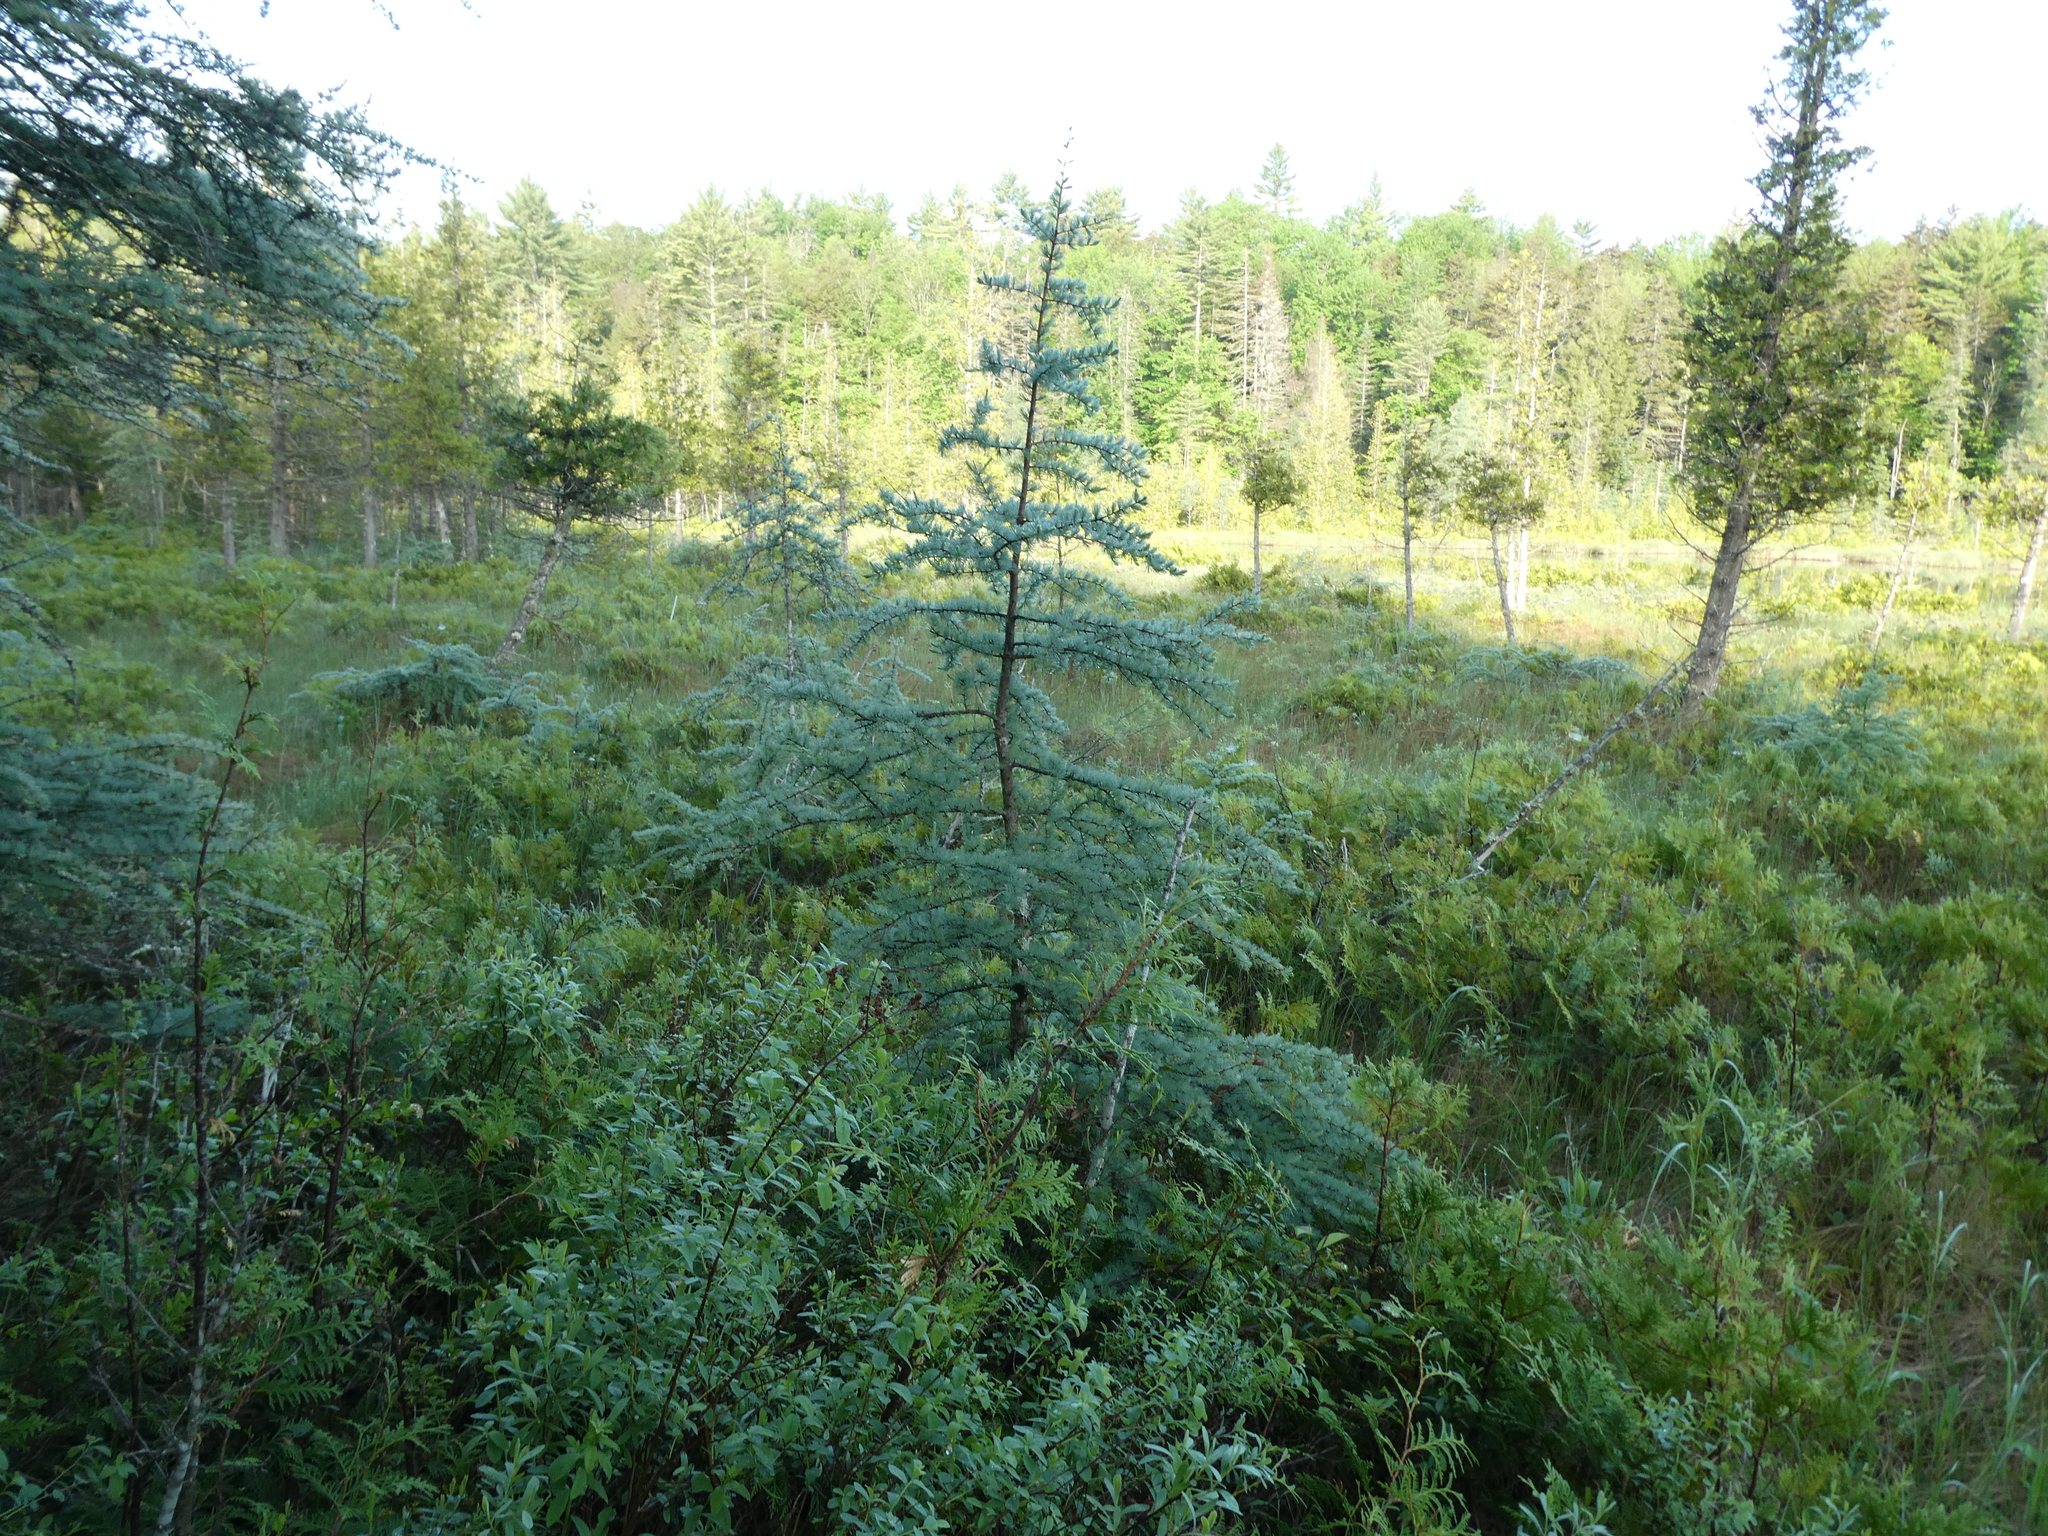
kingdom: Plantae
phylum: Tracheophyta
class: Pinopsida
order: Pinales
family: Pinaceae
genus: Larix
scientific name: Larix laricina
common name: American larch
